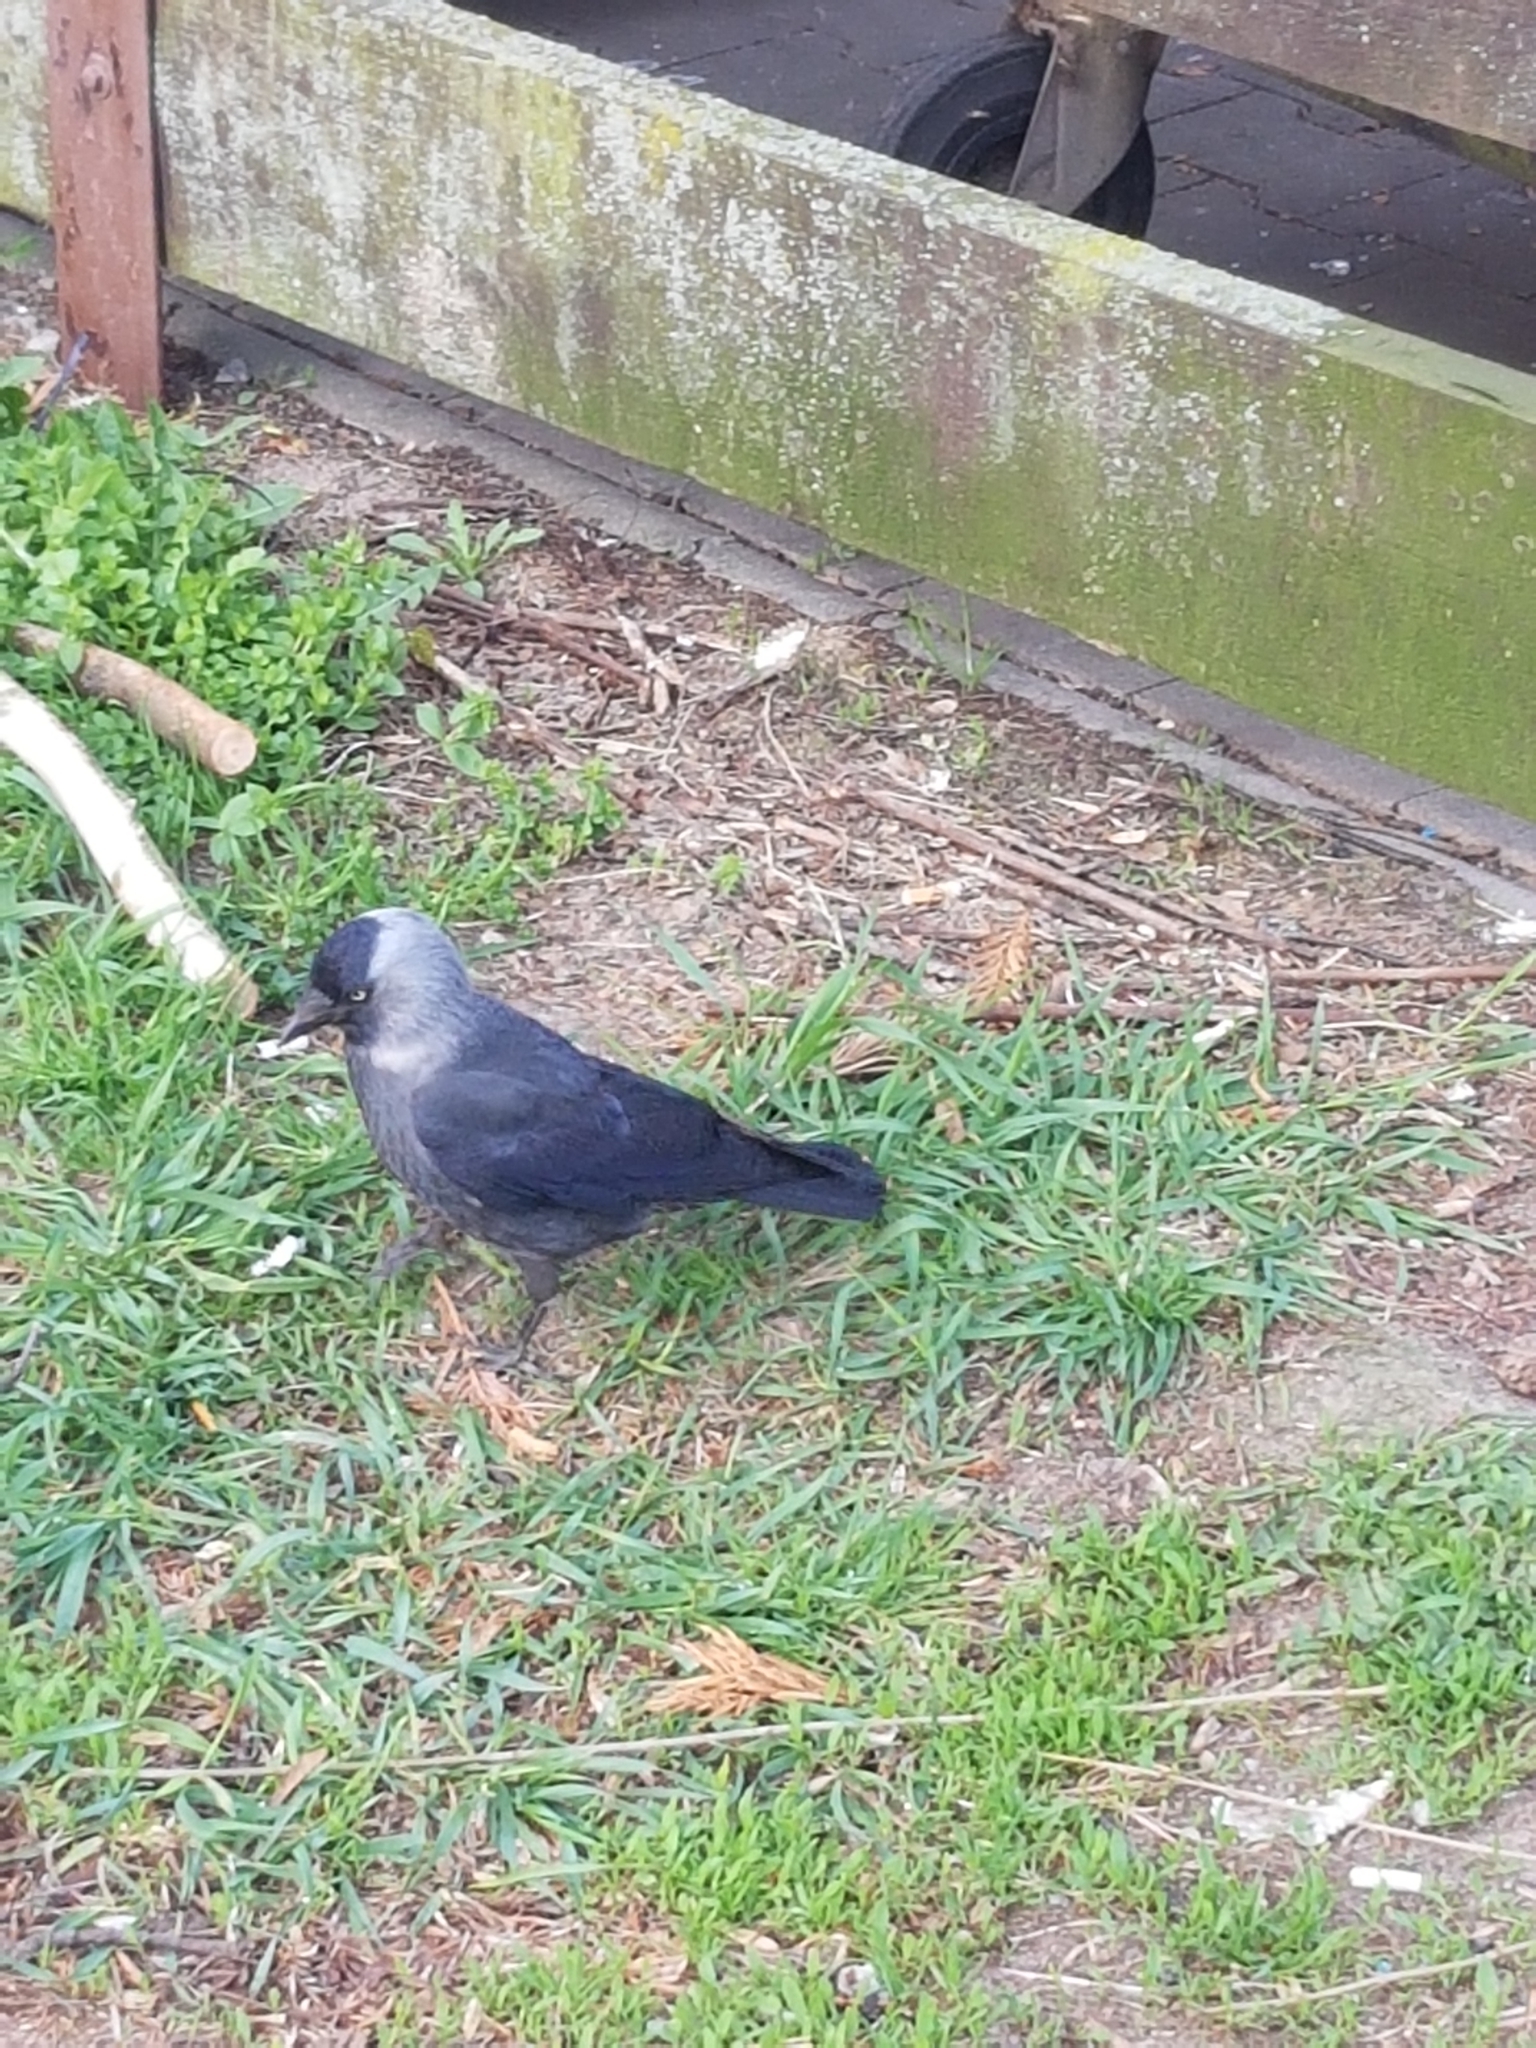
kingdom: Animalia
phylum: Chordata
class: Aves
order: Passeriformes
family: Corvidae
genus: Coloeus
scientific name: Coloeus monedula
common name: Western jackdaw
